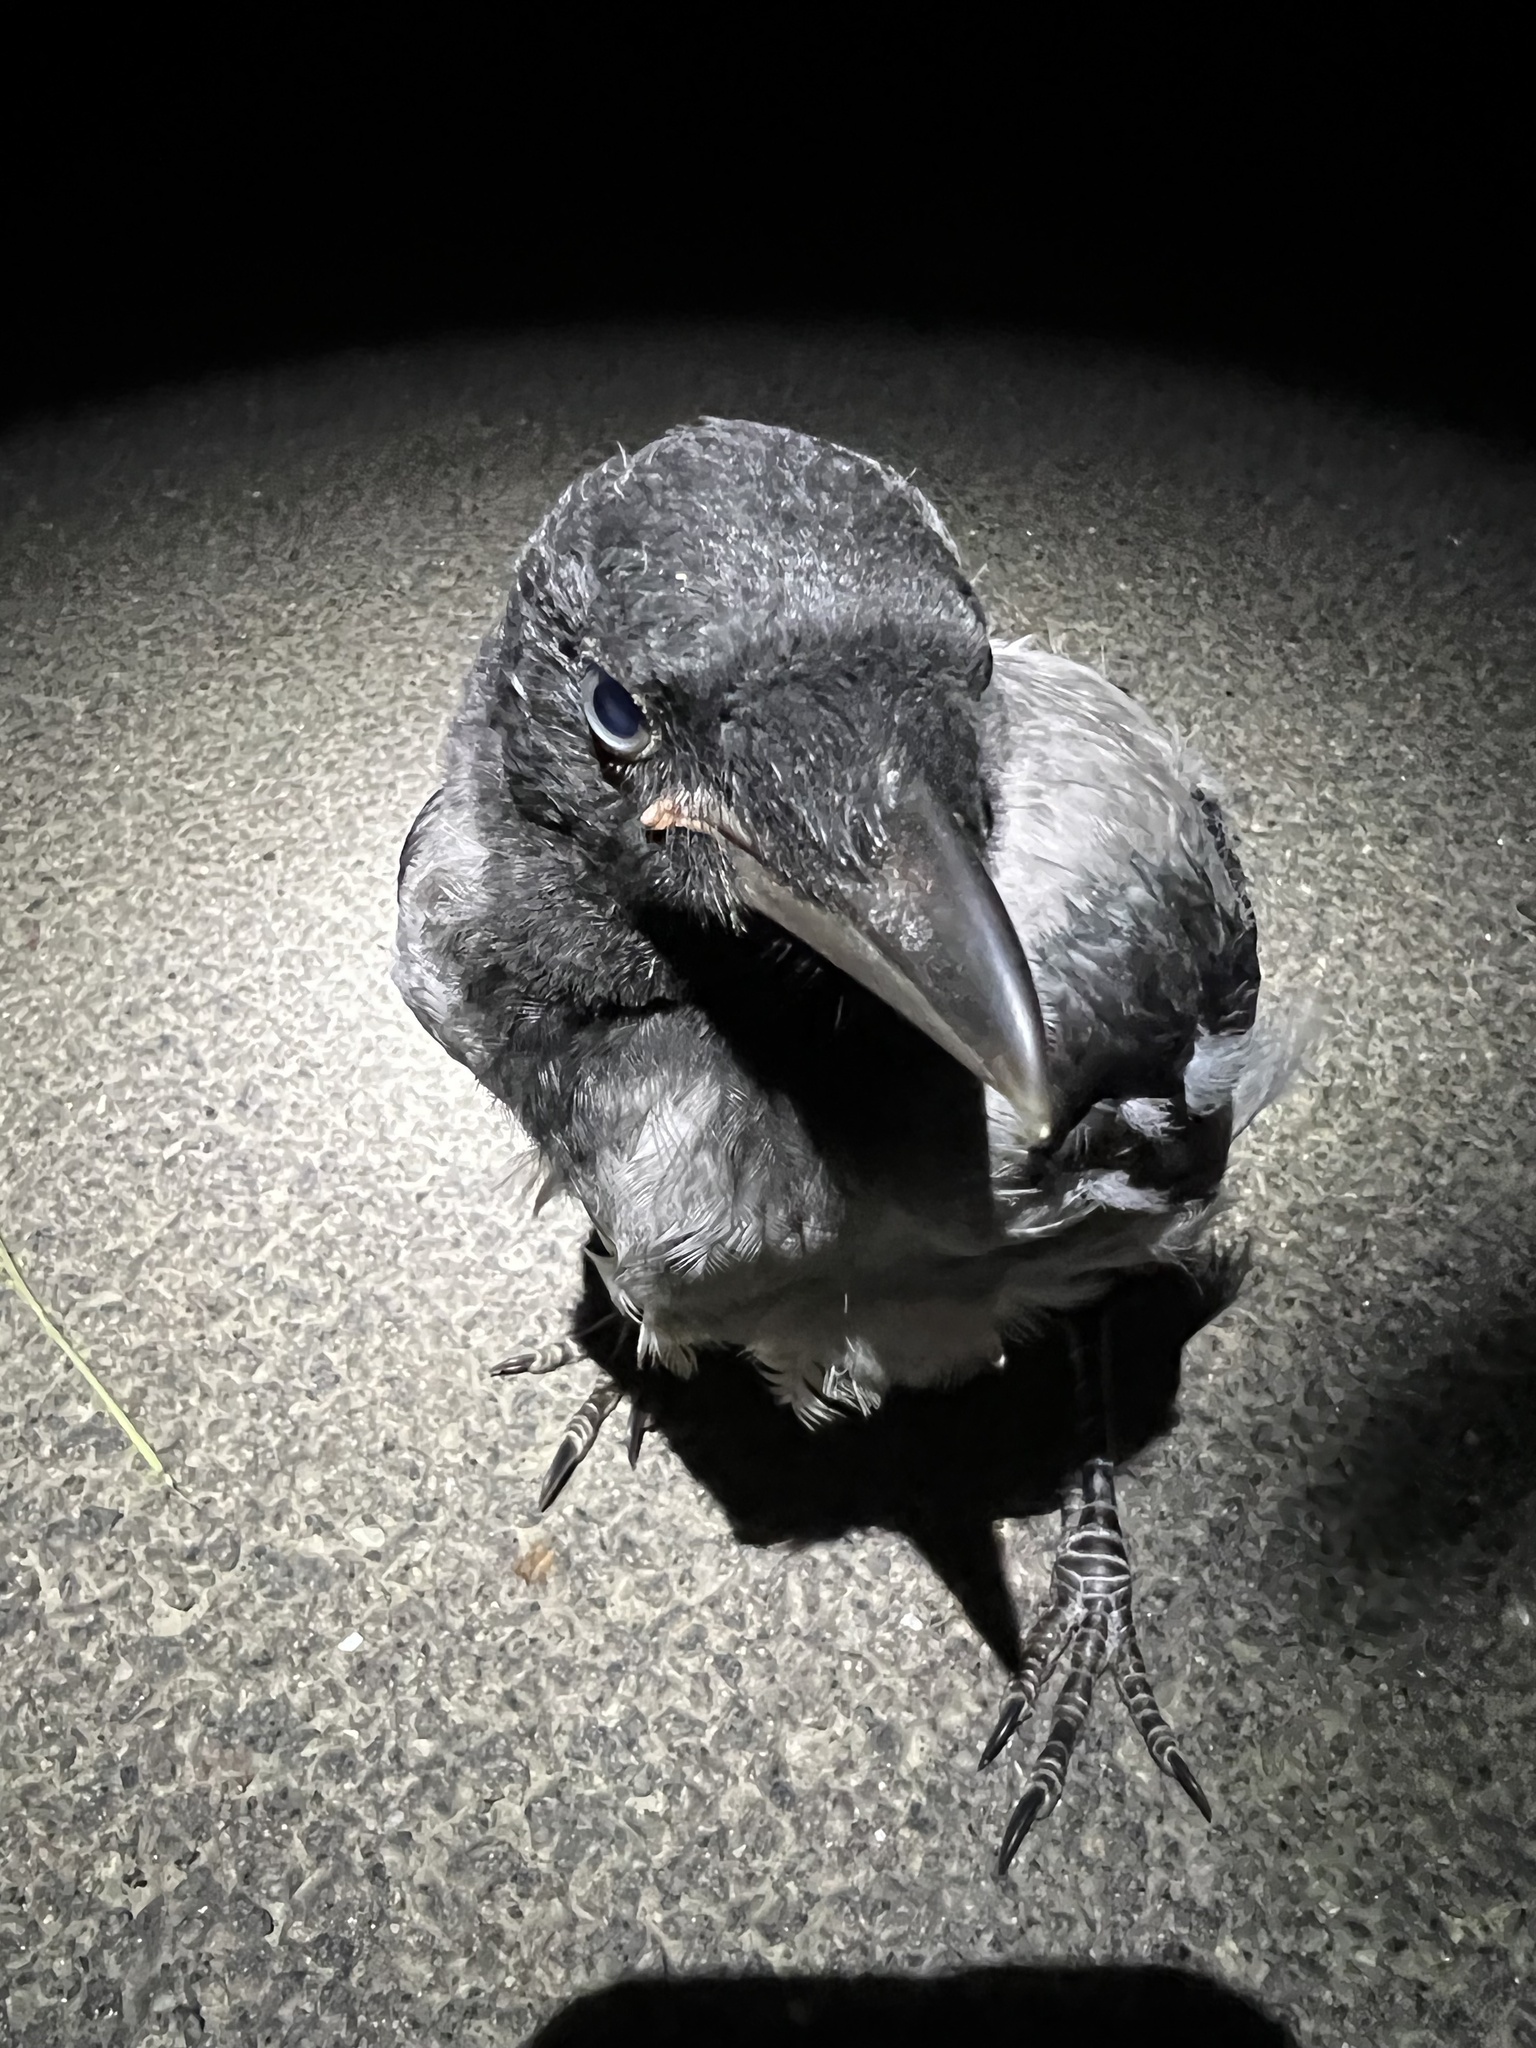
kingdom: Animalia
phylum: Chordata
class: Aves
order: Passeriformes
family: Corvidae
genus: Corvus
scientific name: Corvus cornix
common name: Hooded crow
